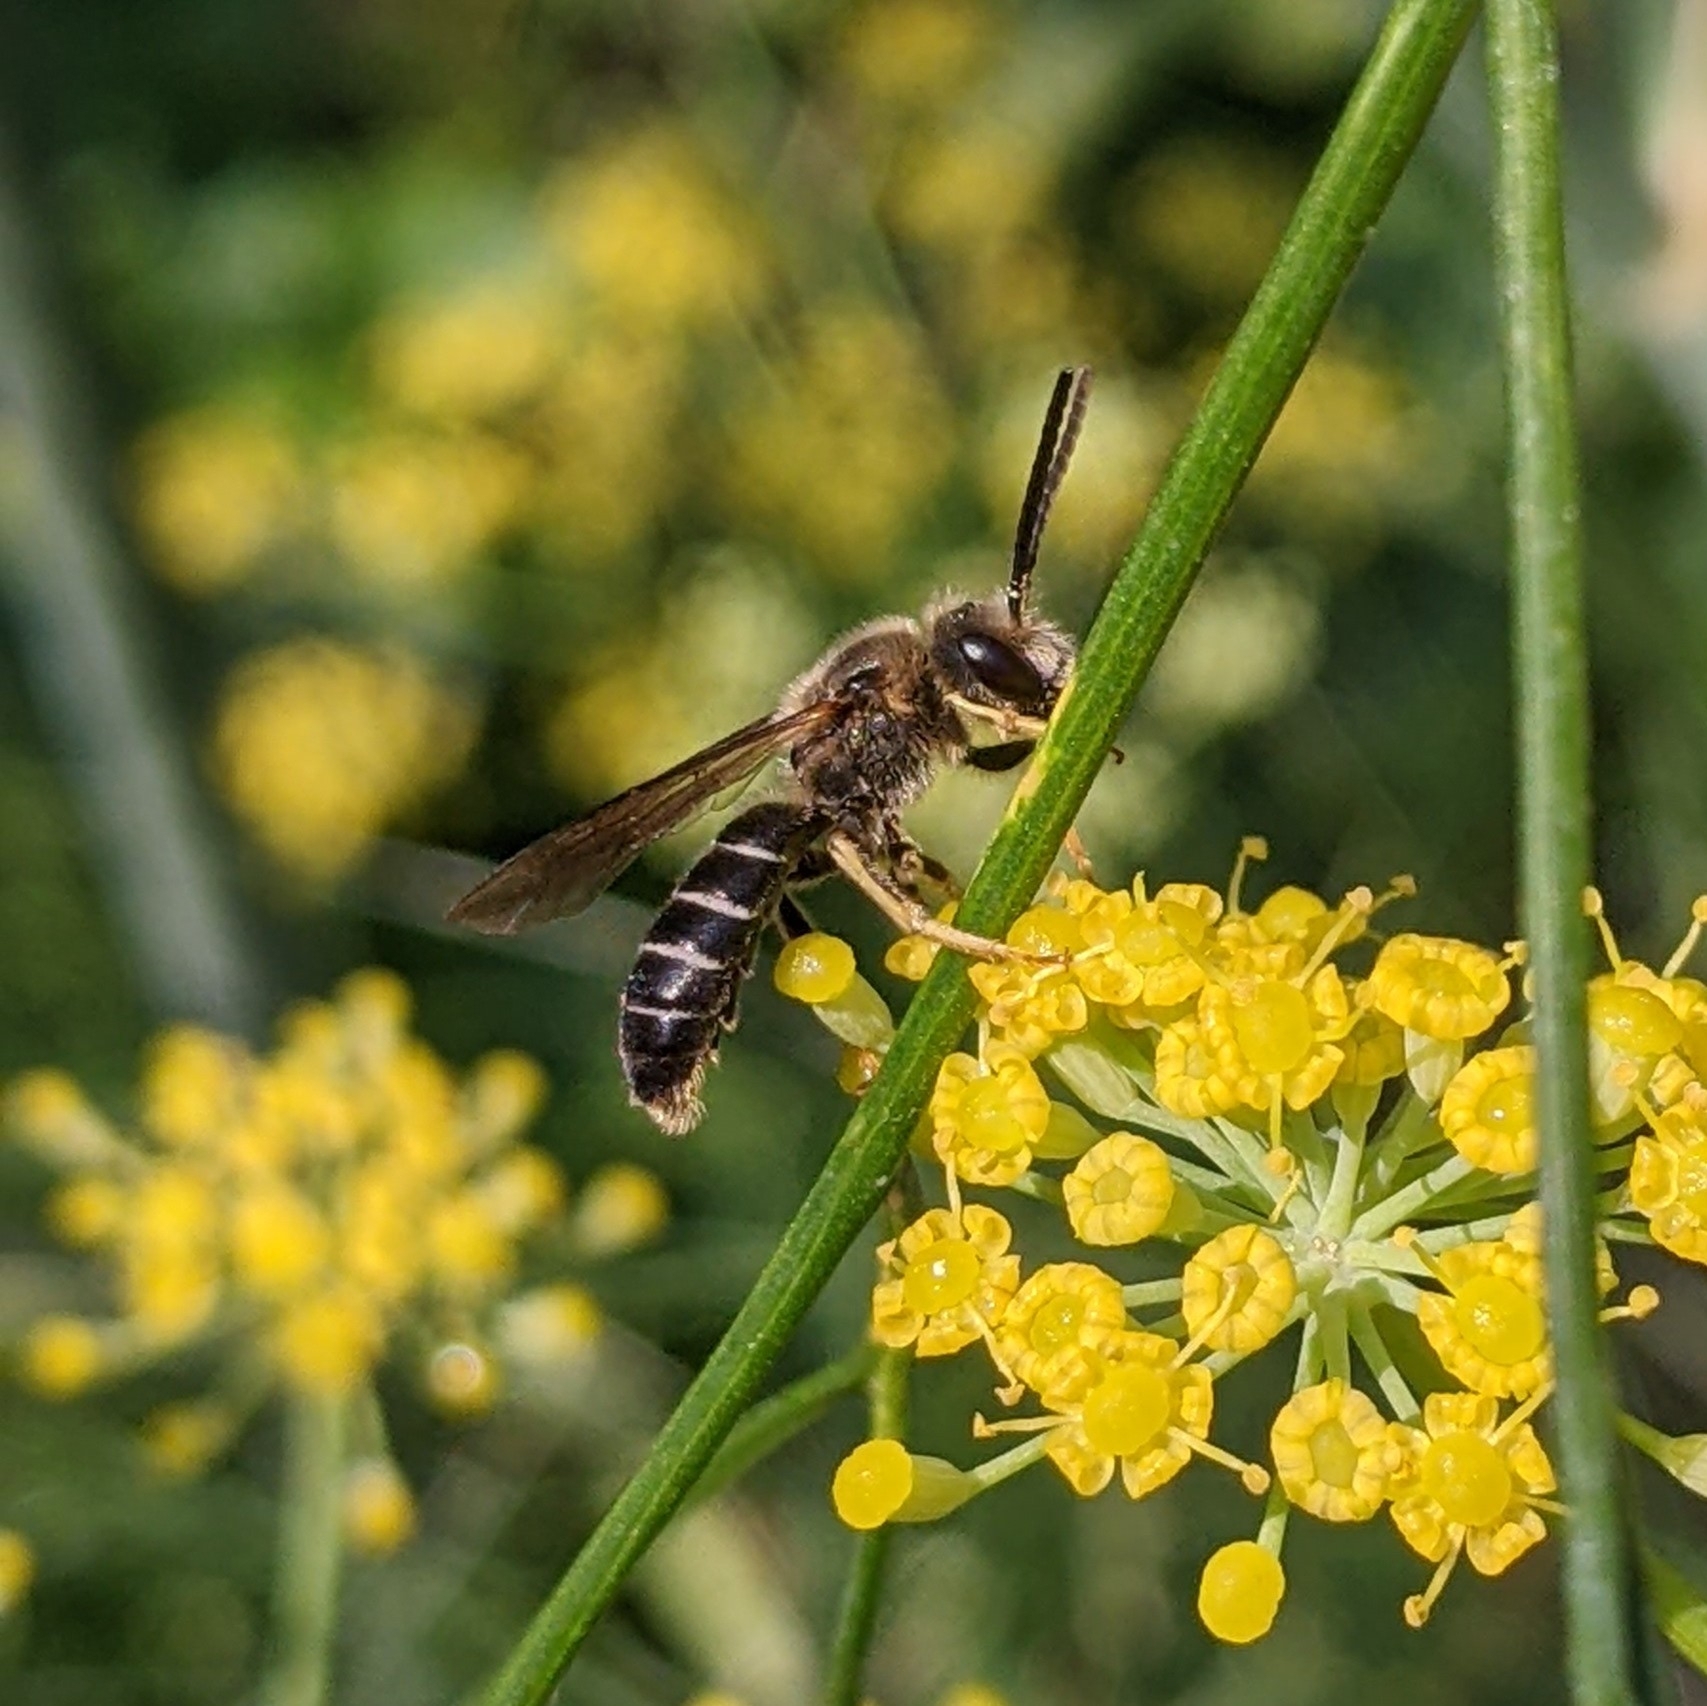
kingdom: Animalia
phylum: Arthropoda
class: Insecta
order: Hymenoptera
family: Halictidae
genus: Halictus
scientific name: Halictus rubicundus
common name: Orange-legged furrow bee
